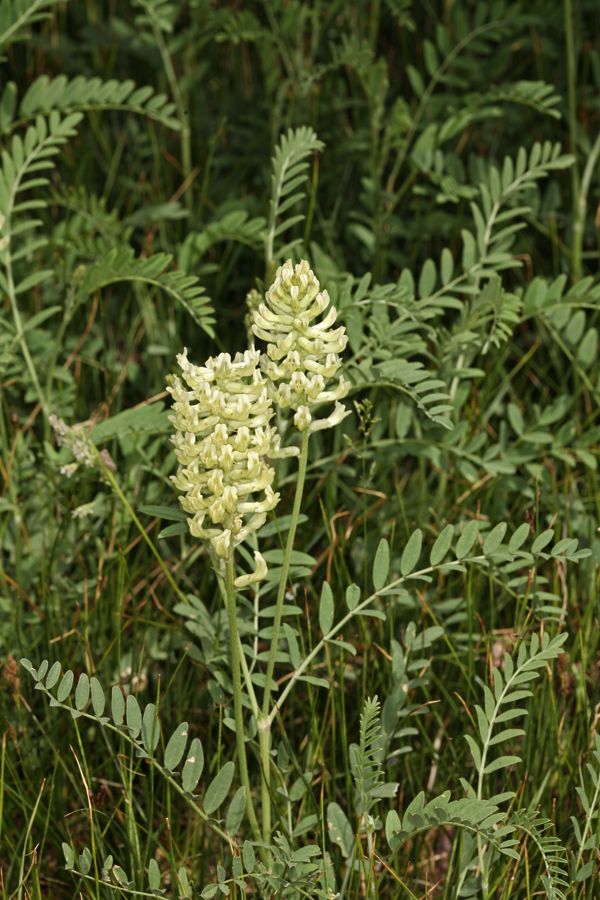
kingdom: Plantae
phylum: Tracheophyta
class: Magnoliopsida
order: Fabales
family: Fabaceae
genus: Astragalus
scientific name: Astragalus canadensis
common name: Canada milk-vetch
